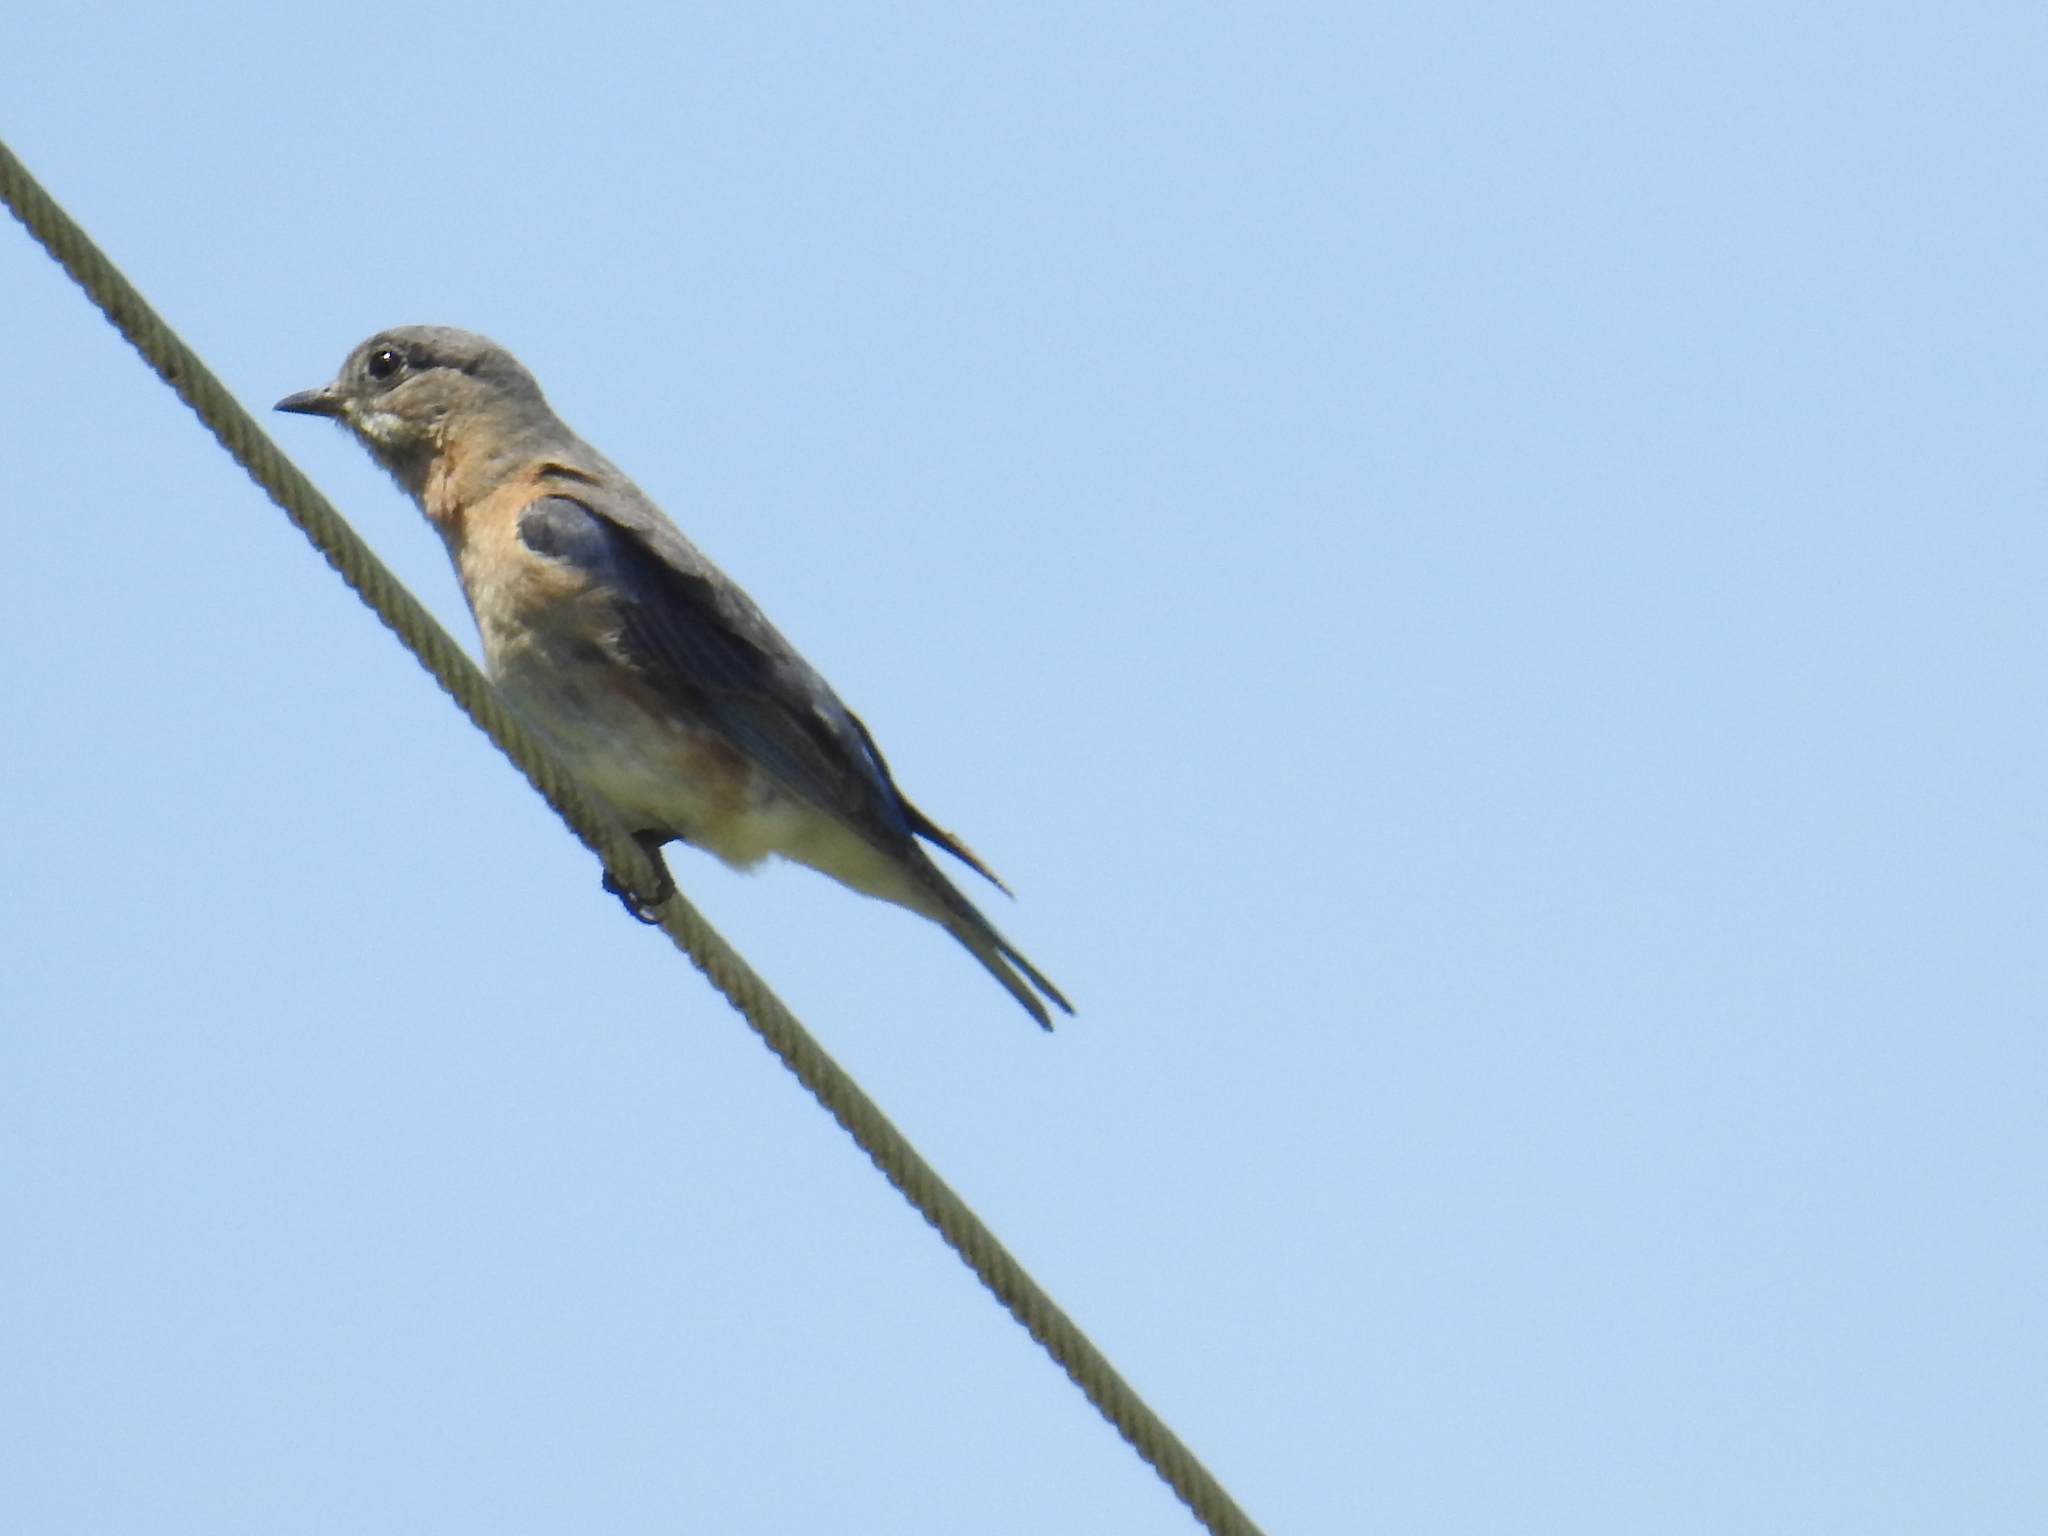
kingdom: Animalia
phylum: Chordata
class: Aves
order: Passeriformes
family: Turdidae
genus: Sialia
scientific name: Sialia sialis
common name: Eastern bluebird
